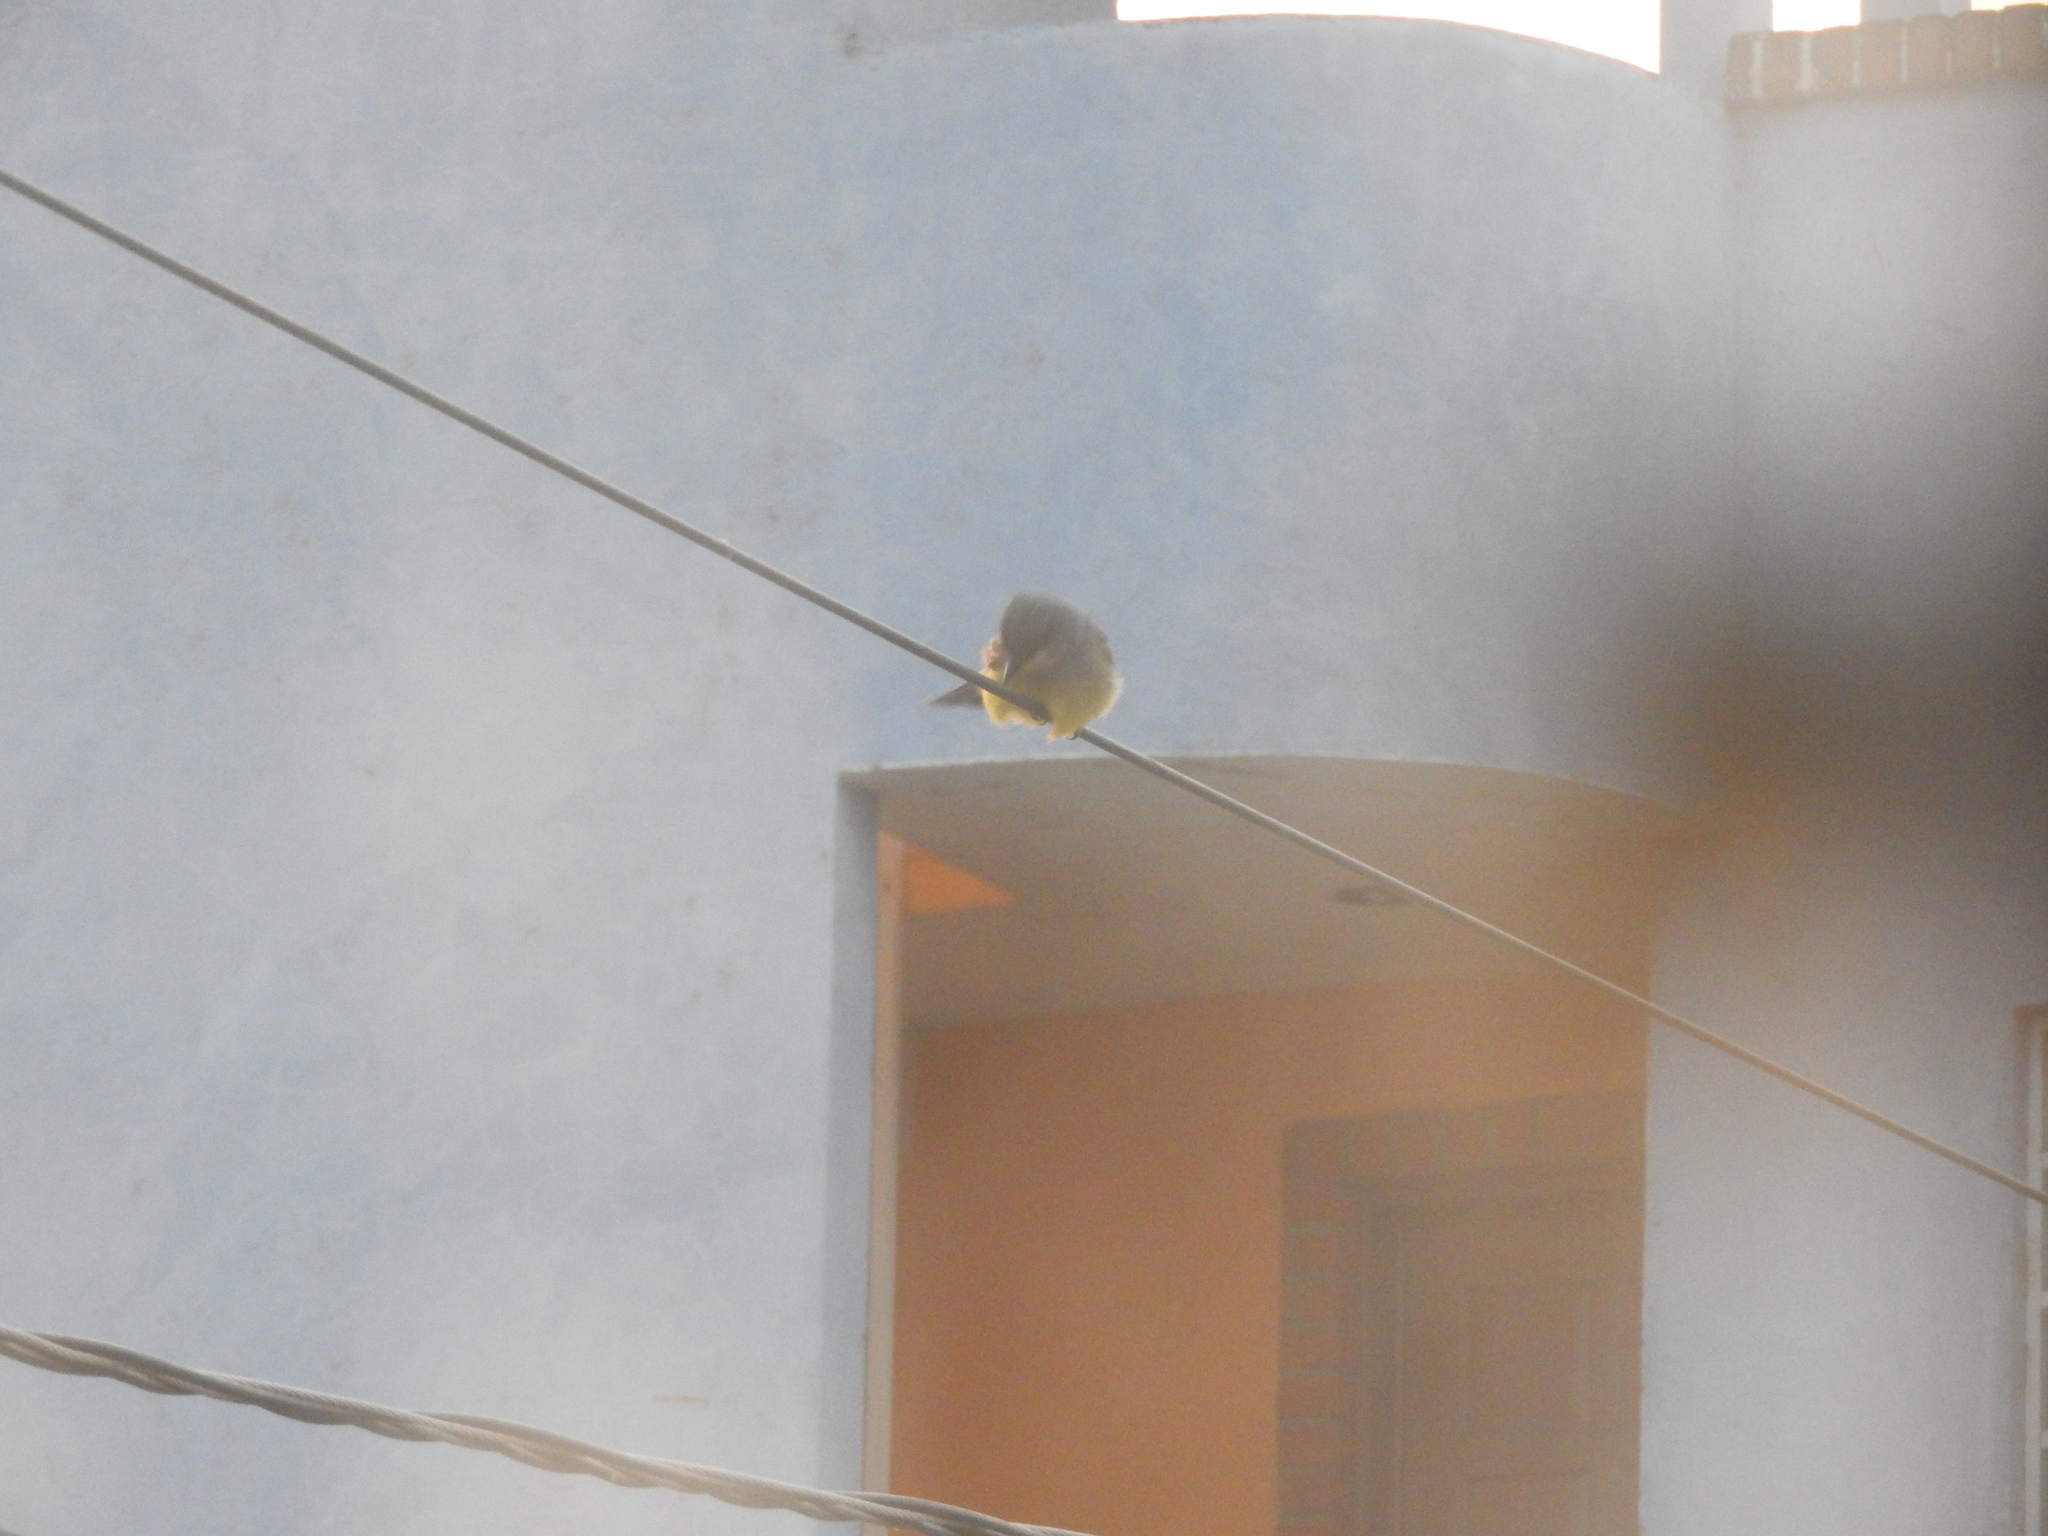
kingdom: Animalia
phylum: Chordata
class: Aves
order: Passeriformes
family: Tyrannidae
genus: Tyrannus
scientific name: Tyrannus vociferans
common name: Cassin's kingbird
